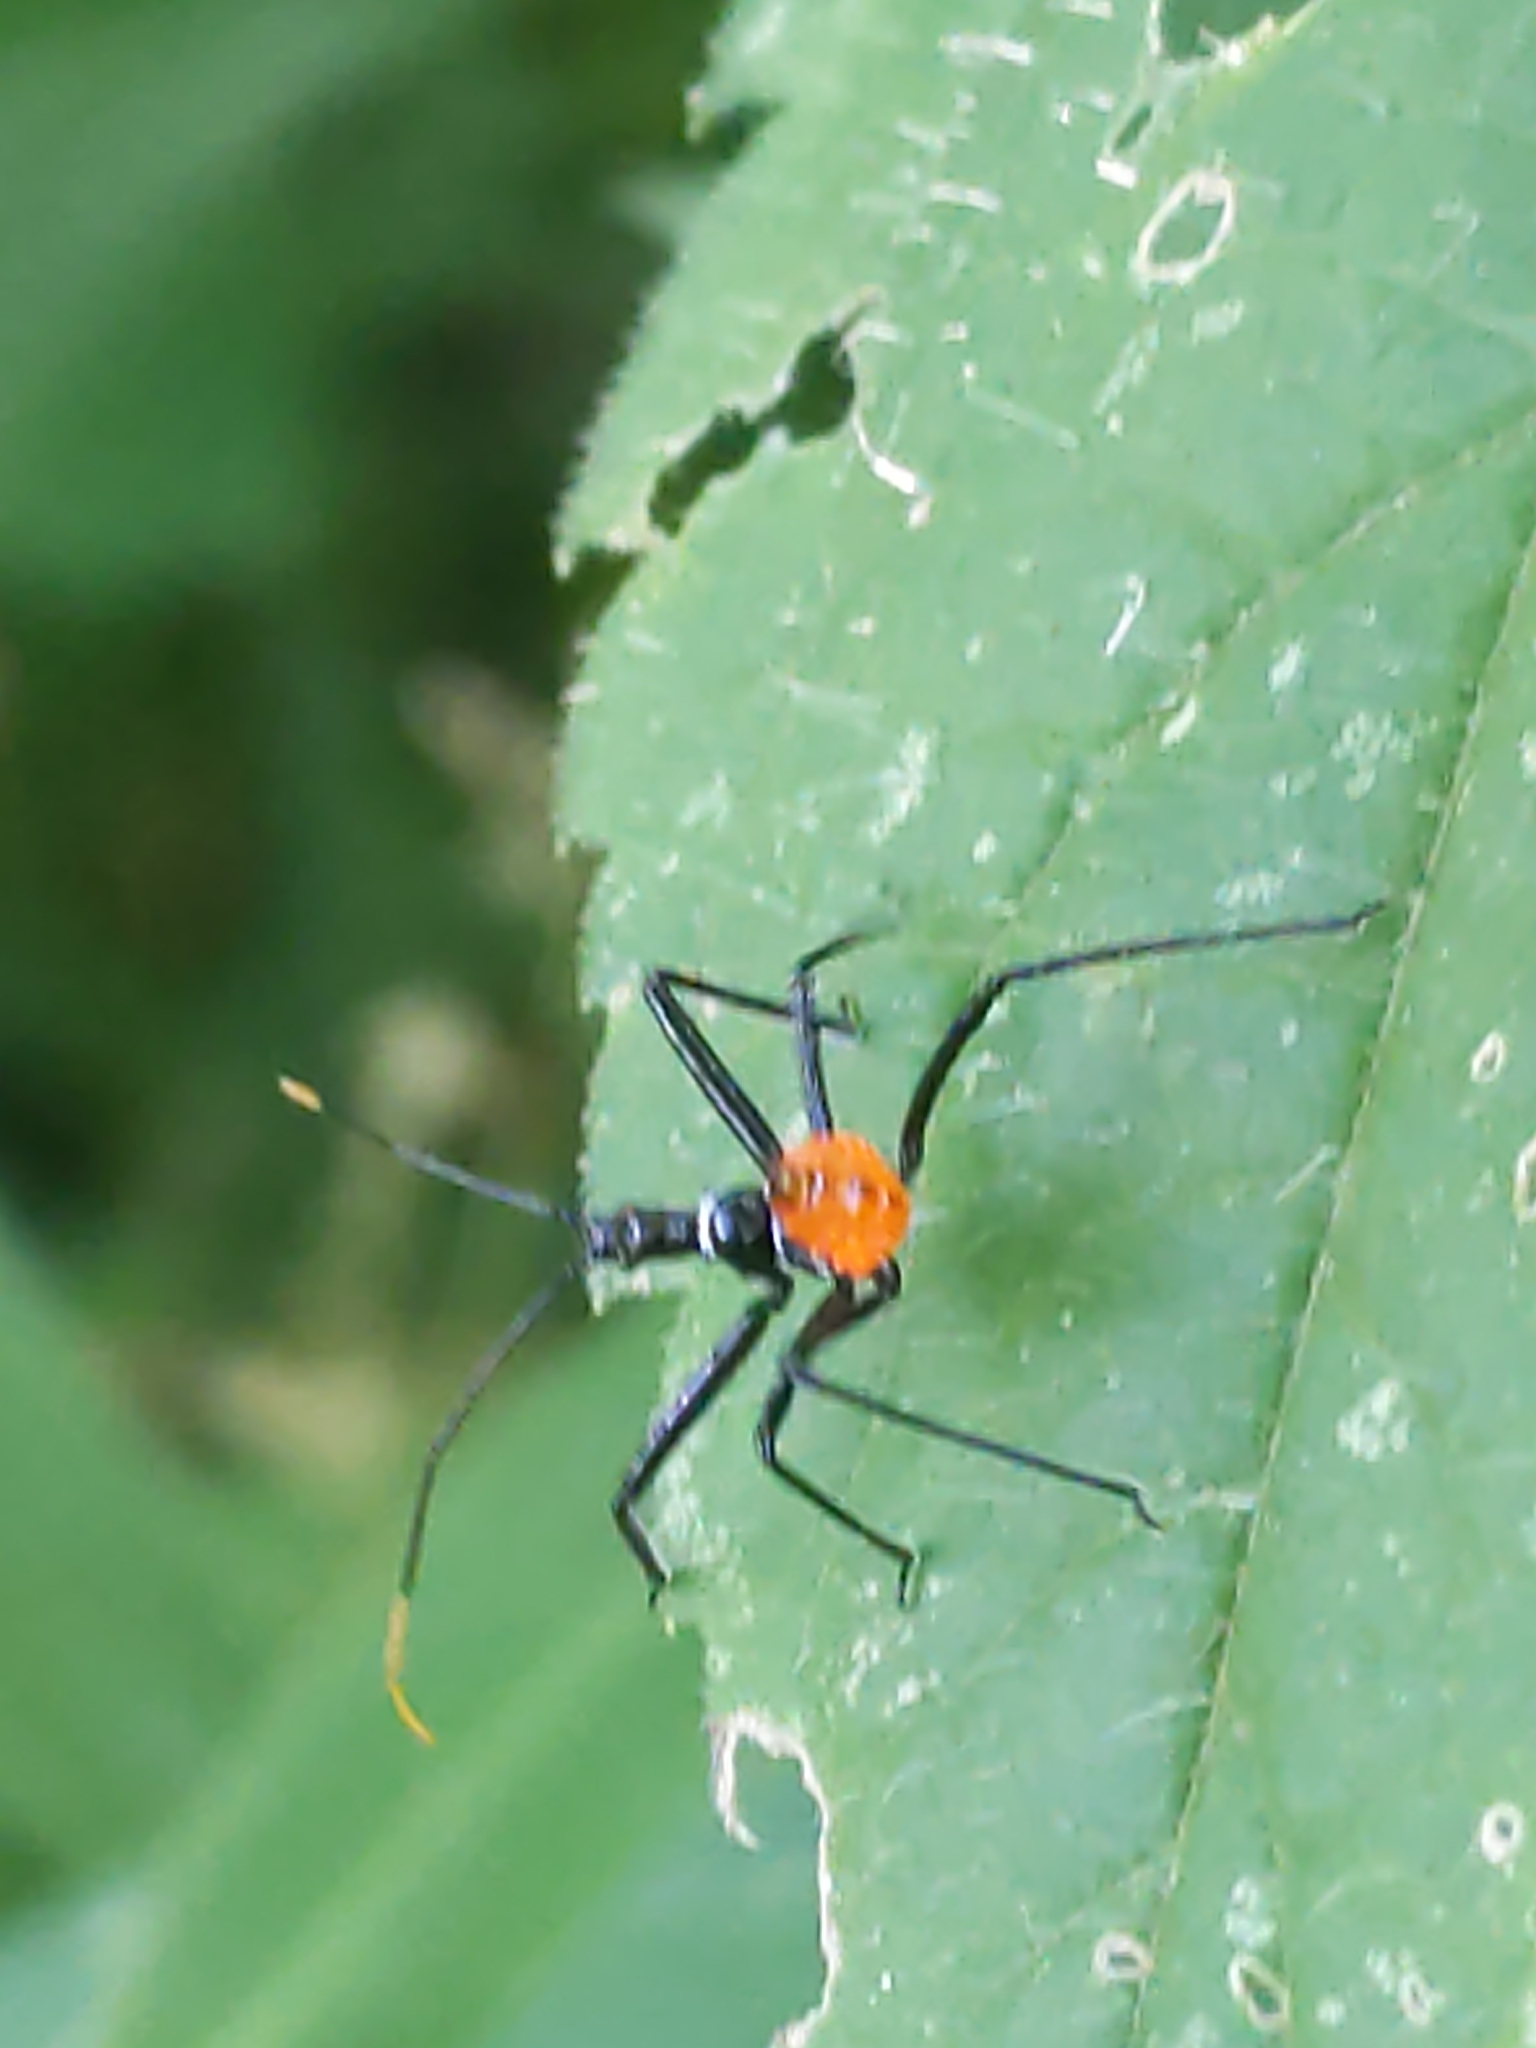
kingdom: Animalia
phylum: Arthropoda
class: Insecta
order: Hemiptera
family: Reduviidae
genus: Arilus
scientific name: Arilus cristatus
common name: North american wheel bug
